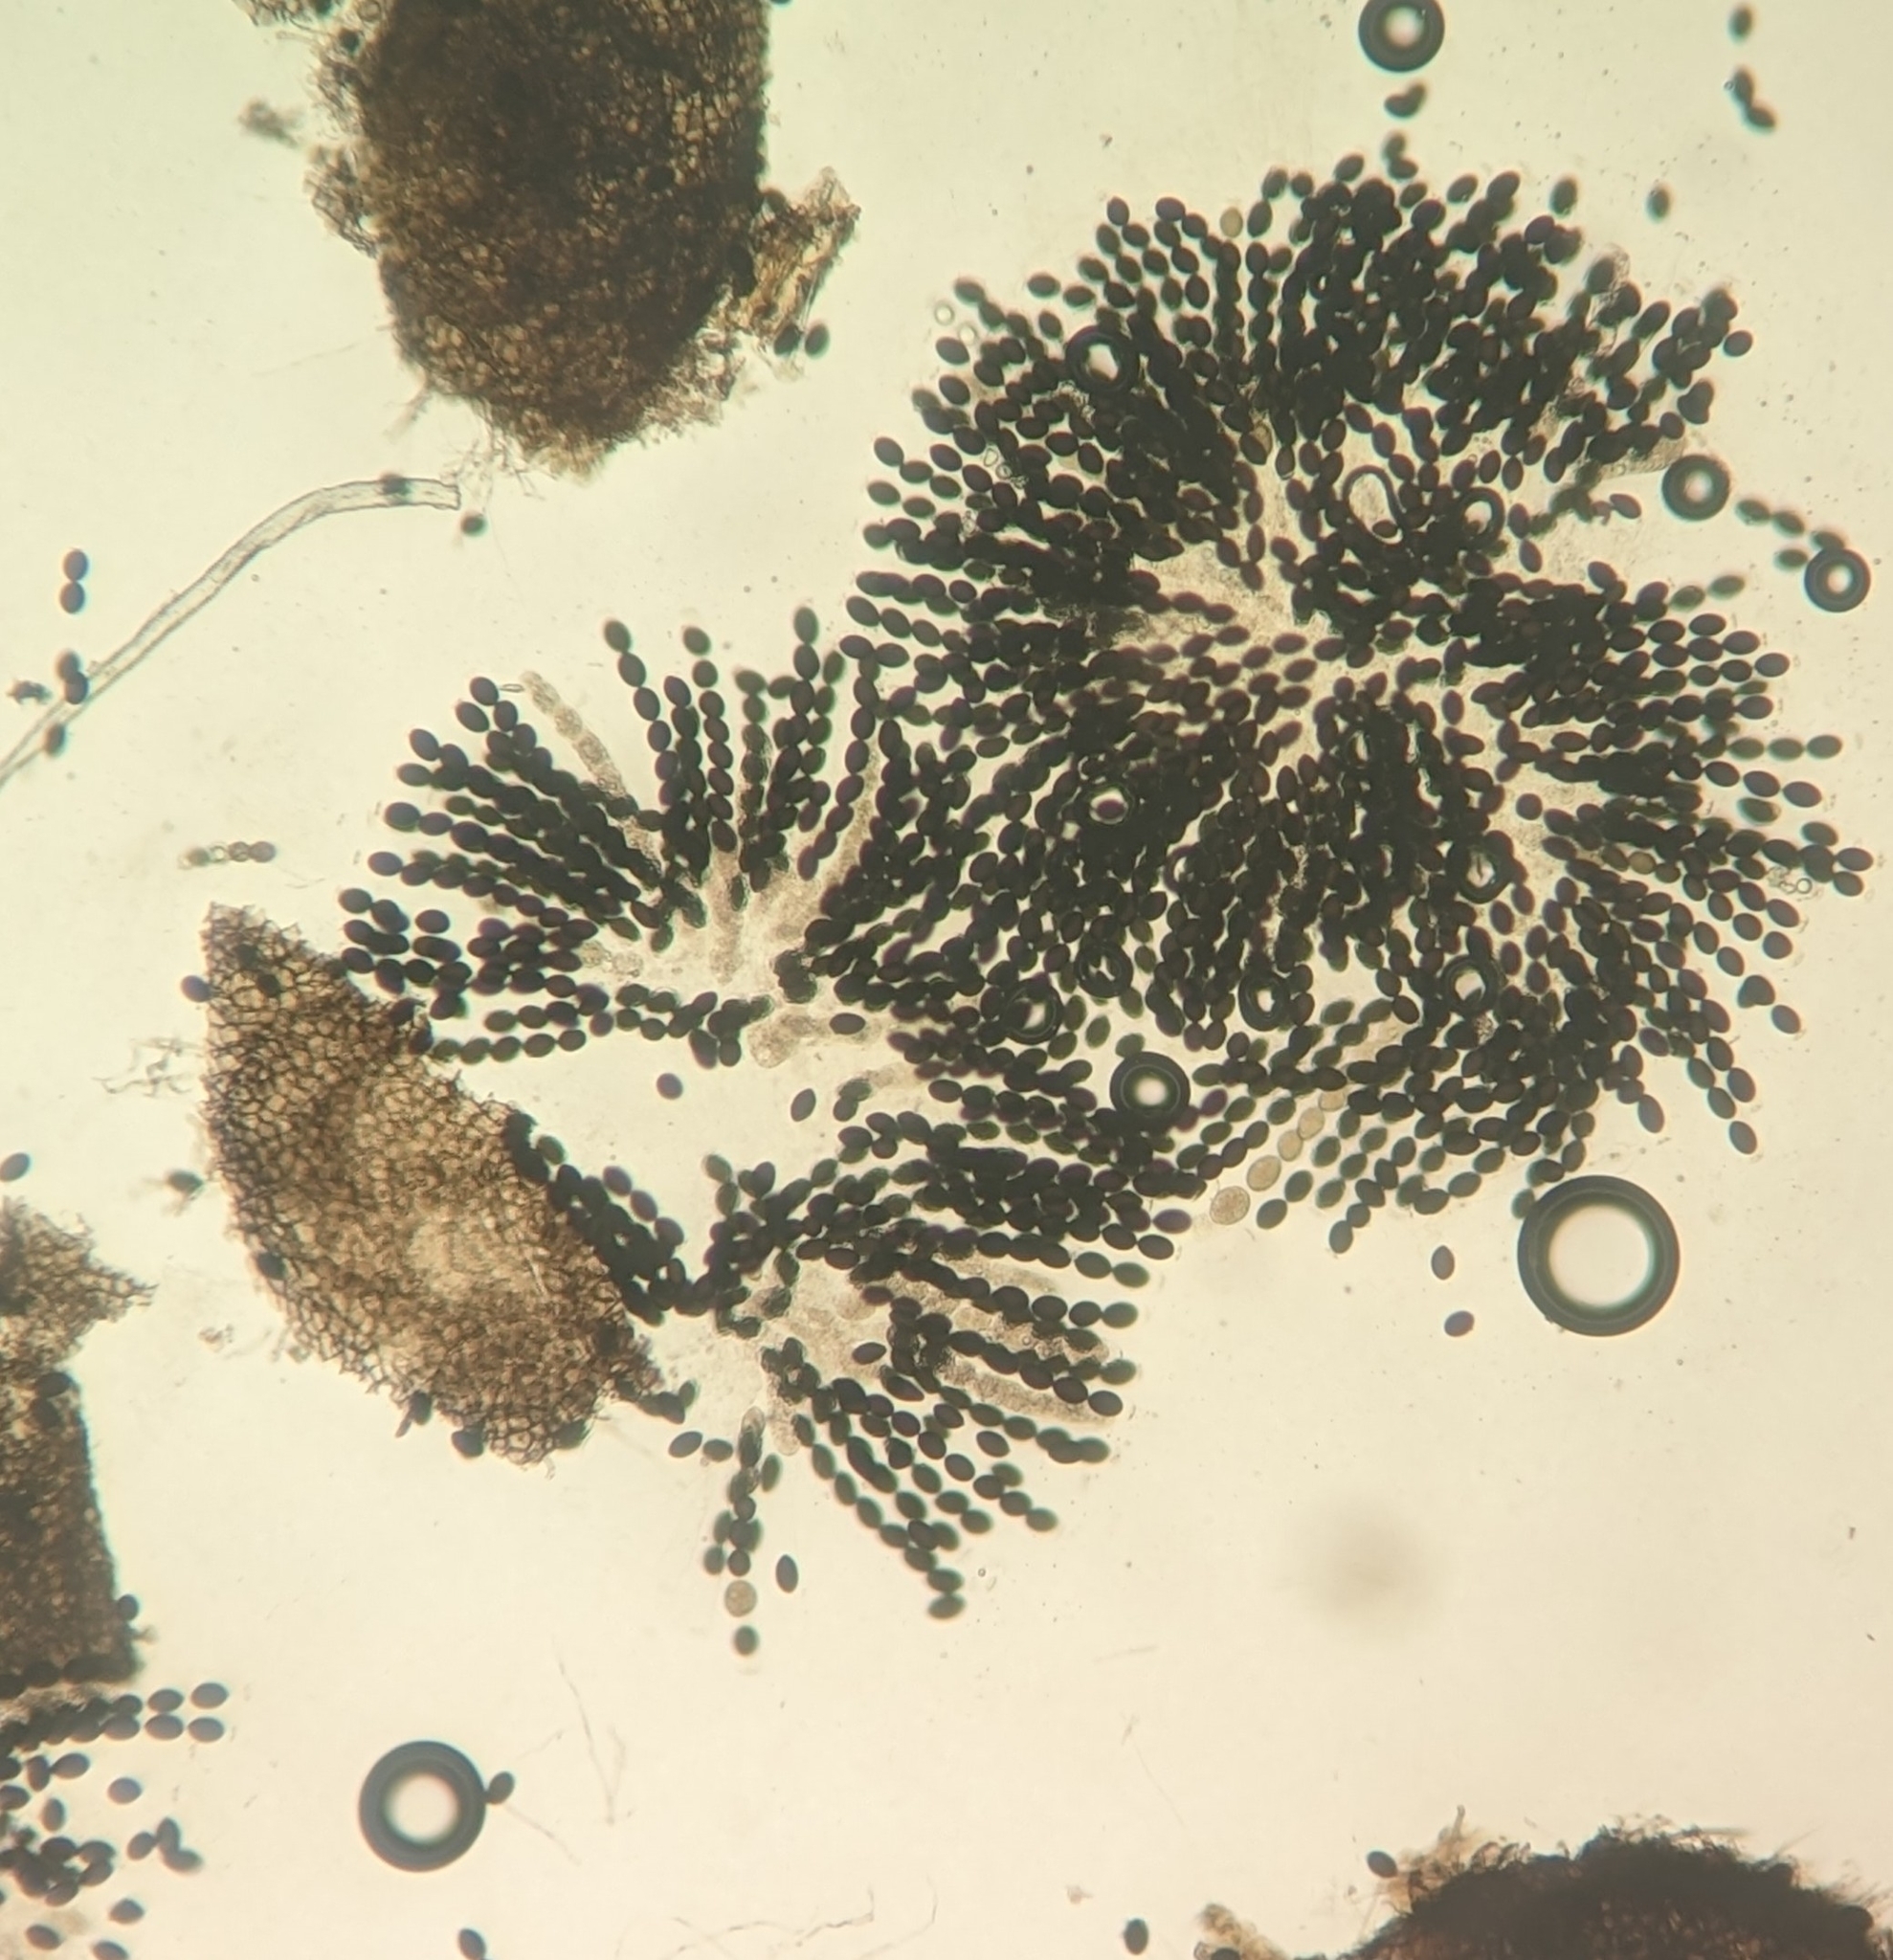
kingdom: Fungi
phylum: Ascomycota
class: Sordariomycetes
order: Sordariales
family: Sordariaceae
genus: Sordaria
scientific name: Sordaria fimicola
